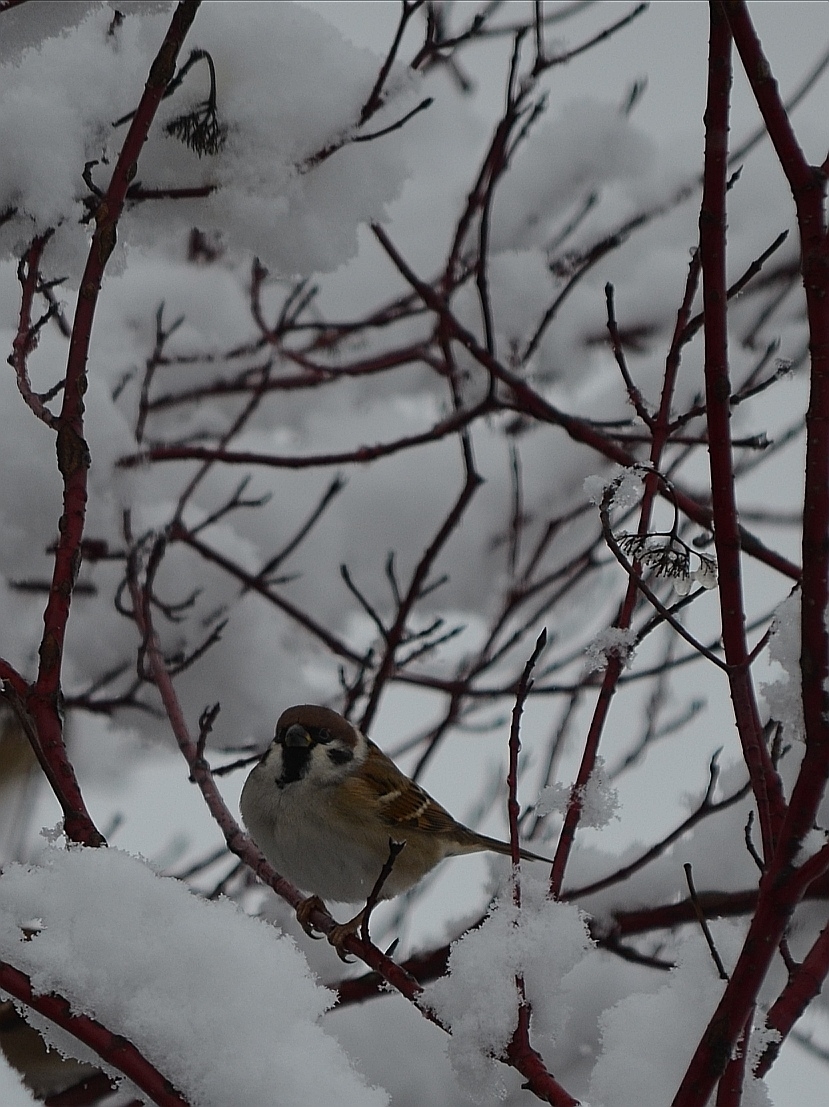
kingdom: Animalia
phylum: Chordata
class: Aves
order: Passeriformes
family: Passeridae
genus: Passer
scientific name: Passer montanus
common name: Eurasian tree sparrow
